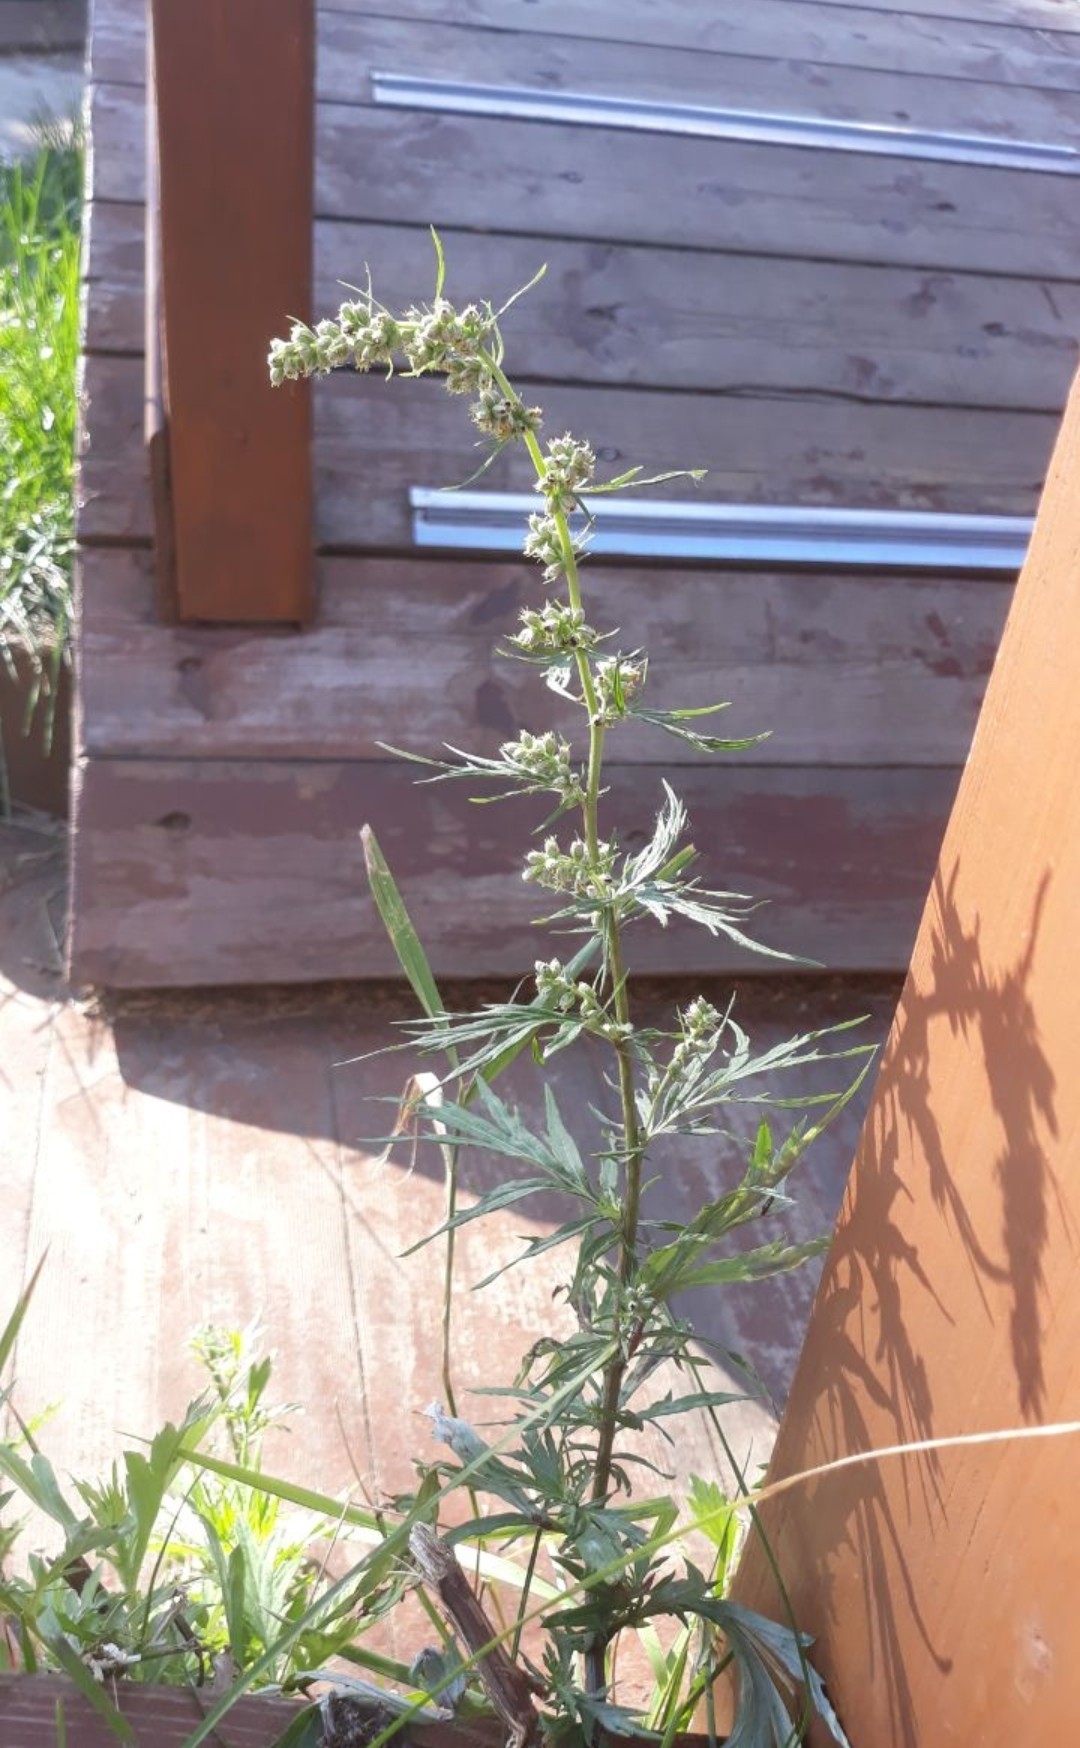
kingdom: Plantae
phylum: Tracheophyta
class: Magnoliopsida
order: Asterales
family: Asteraceae
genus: Artemisia
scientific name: Artemisia vulgaris
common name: Mugwort
